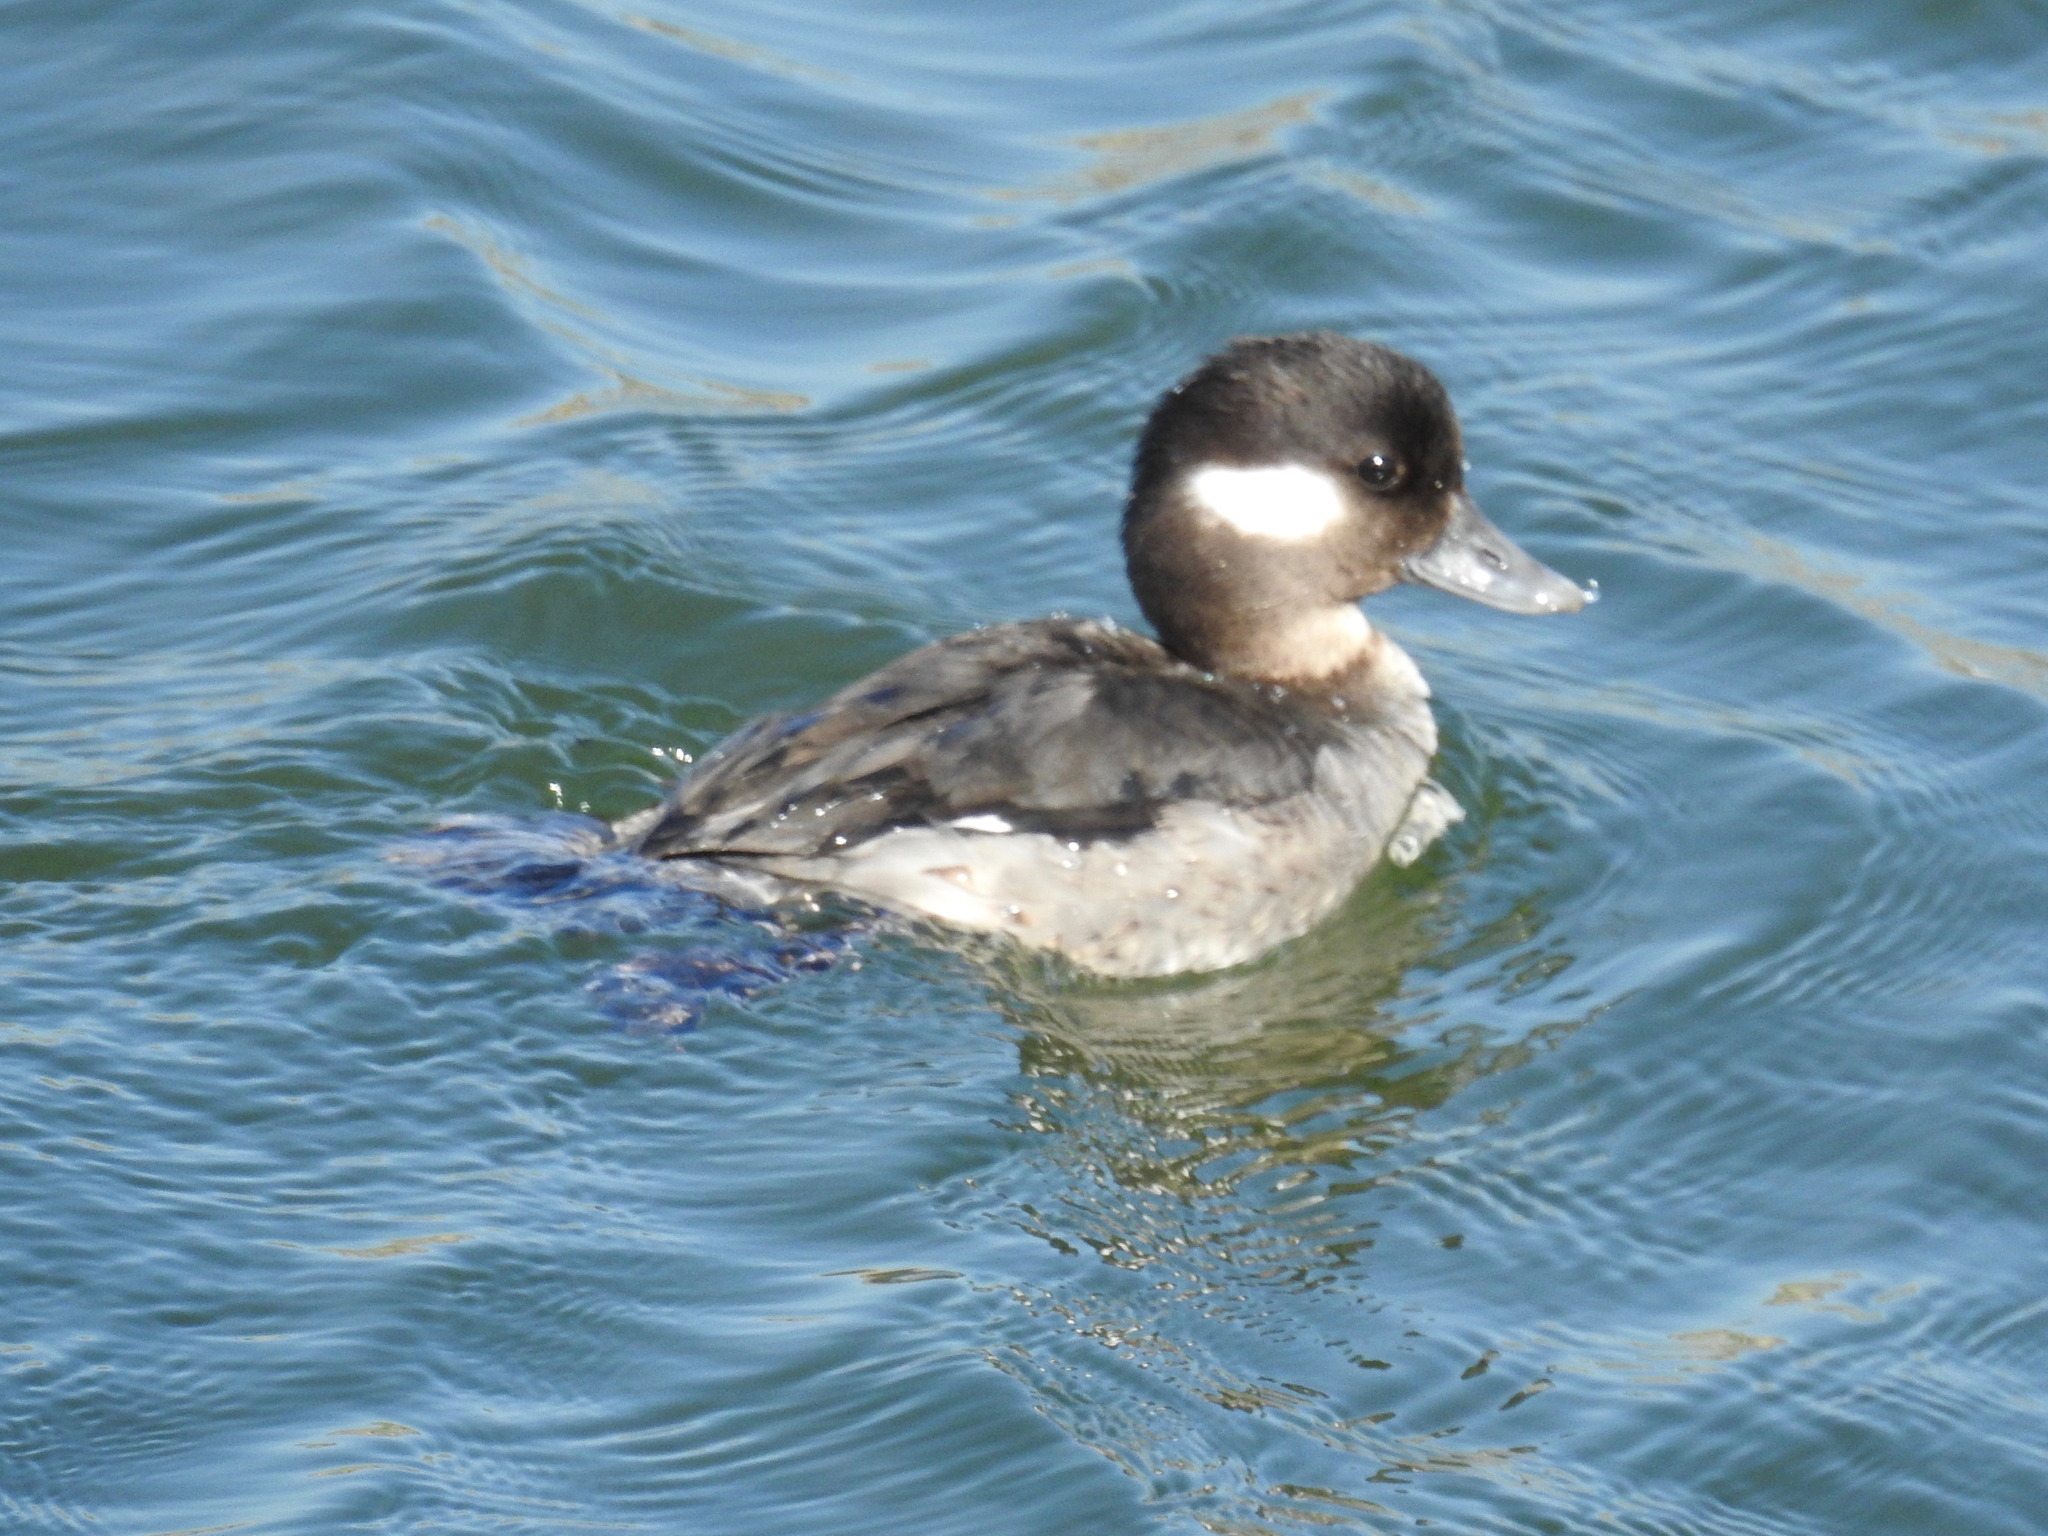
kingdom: Animalia
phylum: Chordata
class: Aves
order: Anseriformes
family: Anatidae
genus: Bucephala
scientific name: Bucephala albeola
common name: Bufflehead
